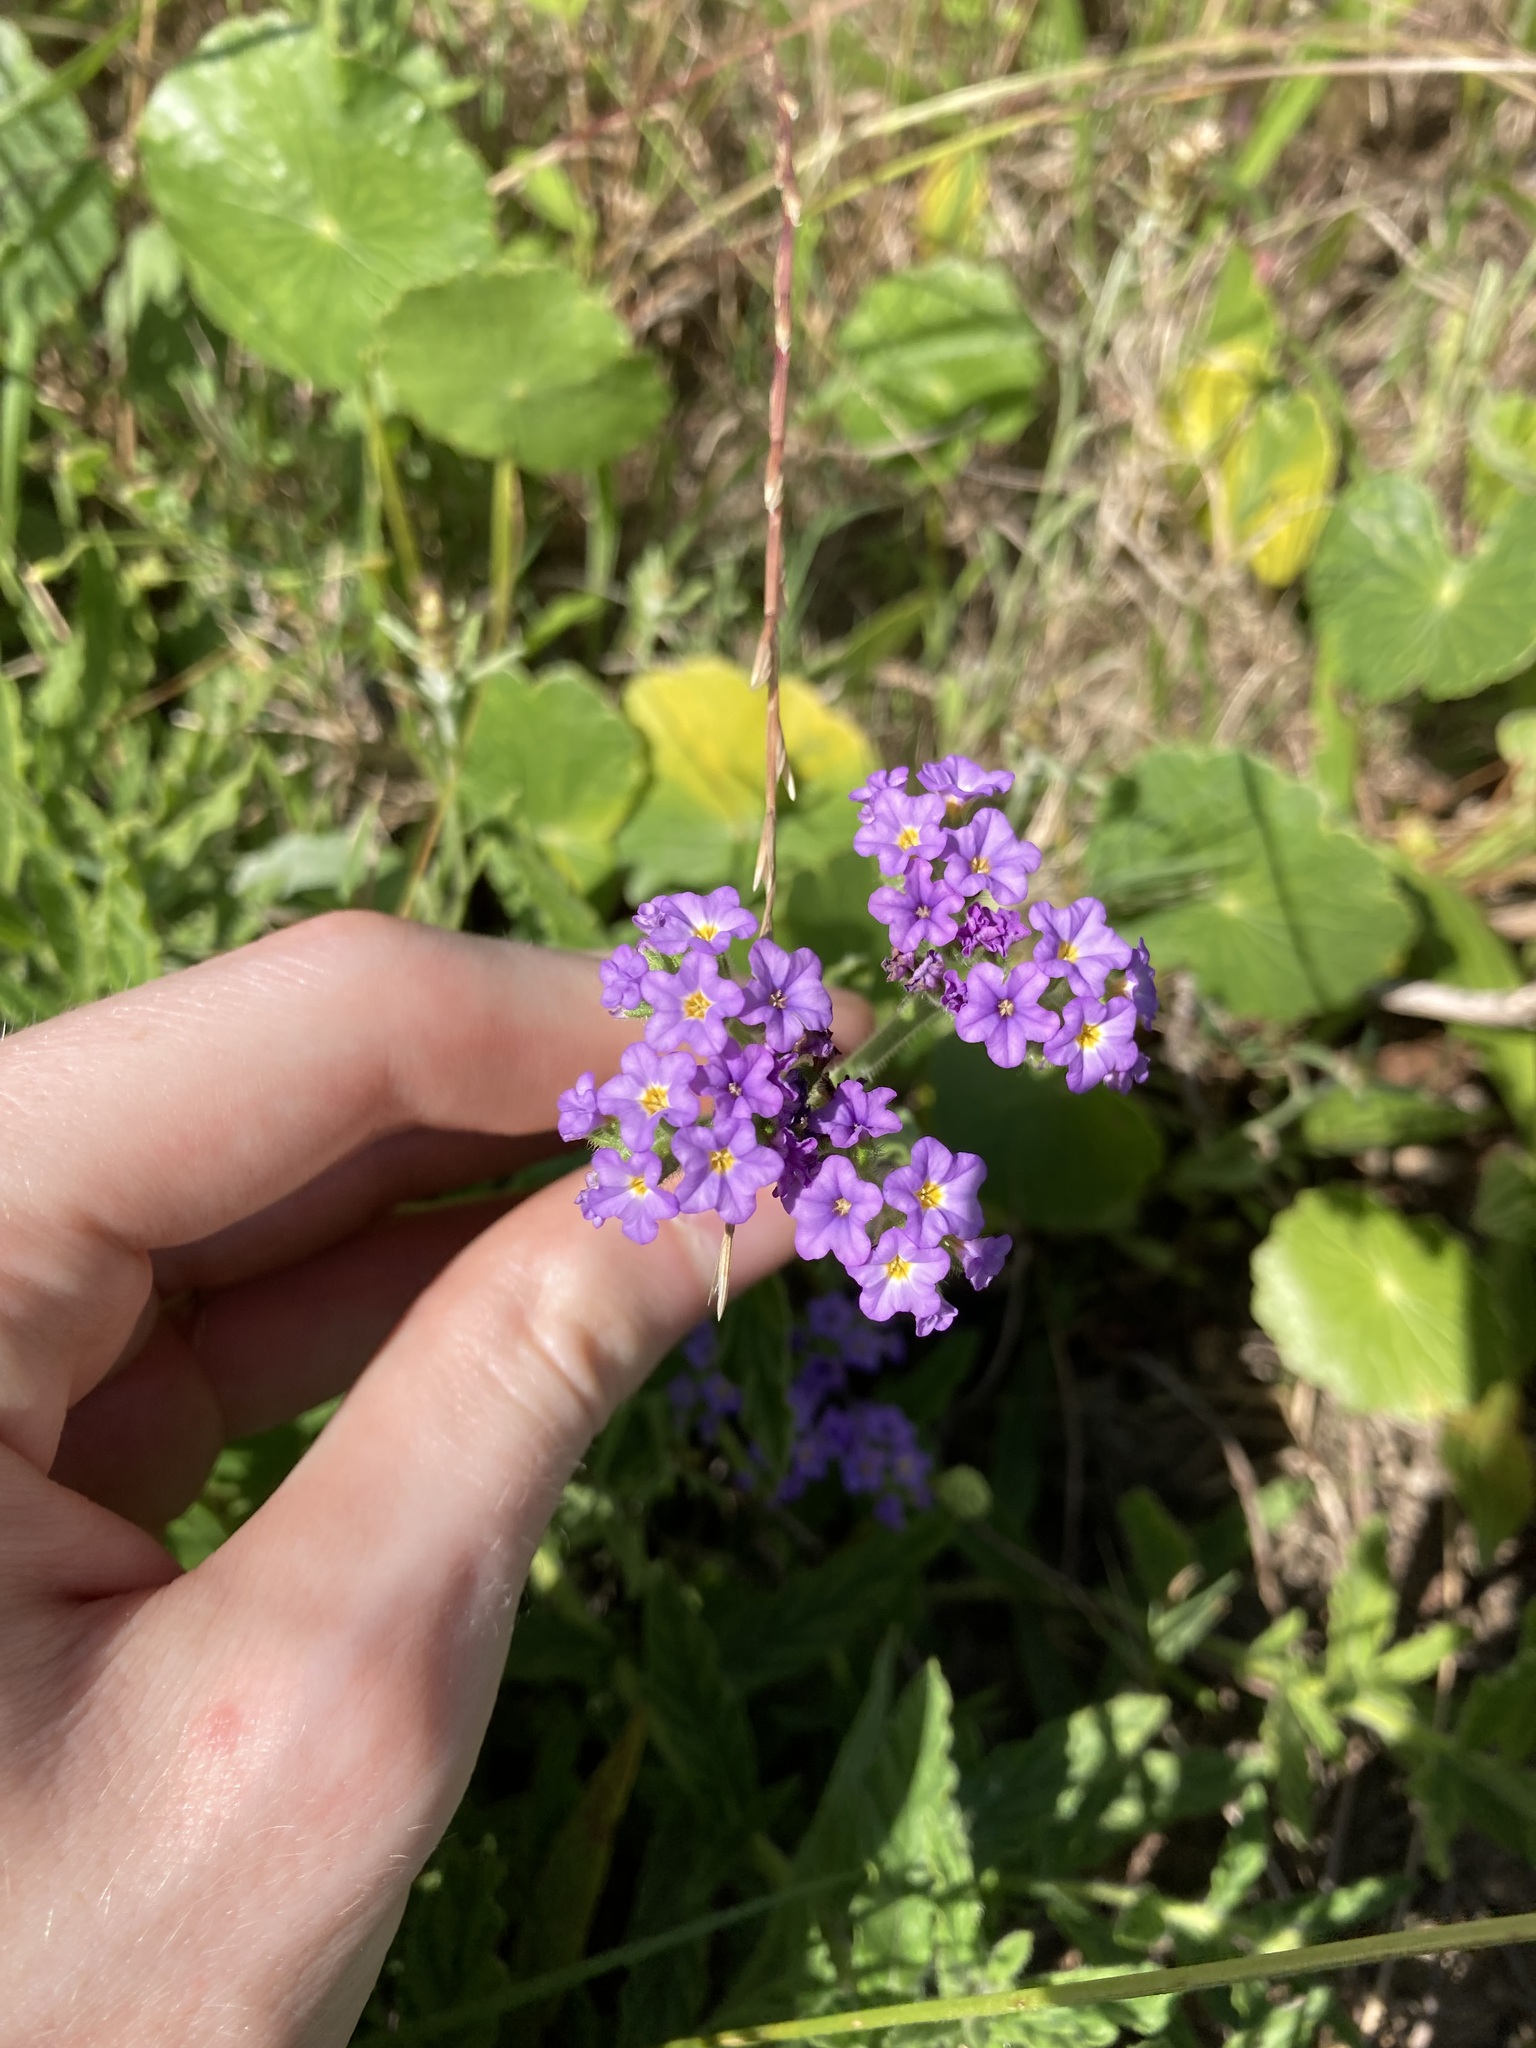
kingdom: Plantae
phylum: Tracheophyta
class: Magnoliopsida
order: Boraginales
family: Heliotropiaceae
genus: Heliotropium
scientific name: Heliotropium amplexicaule
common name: Clasping heliotrope
